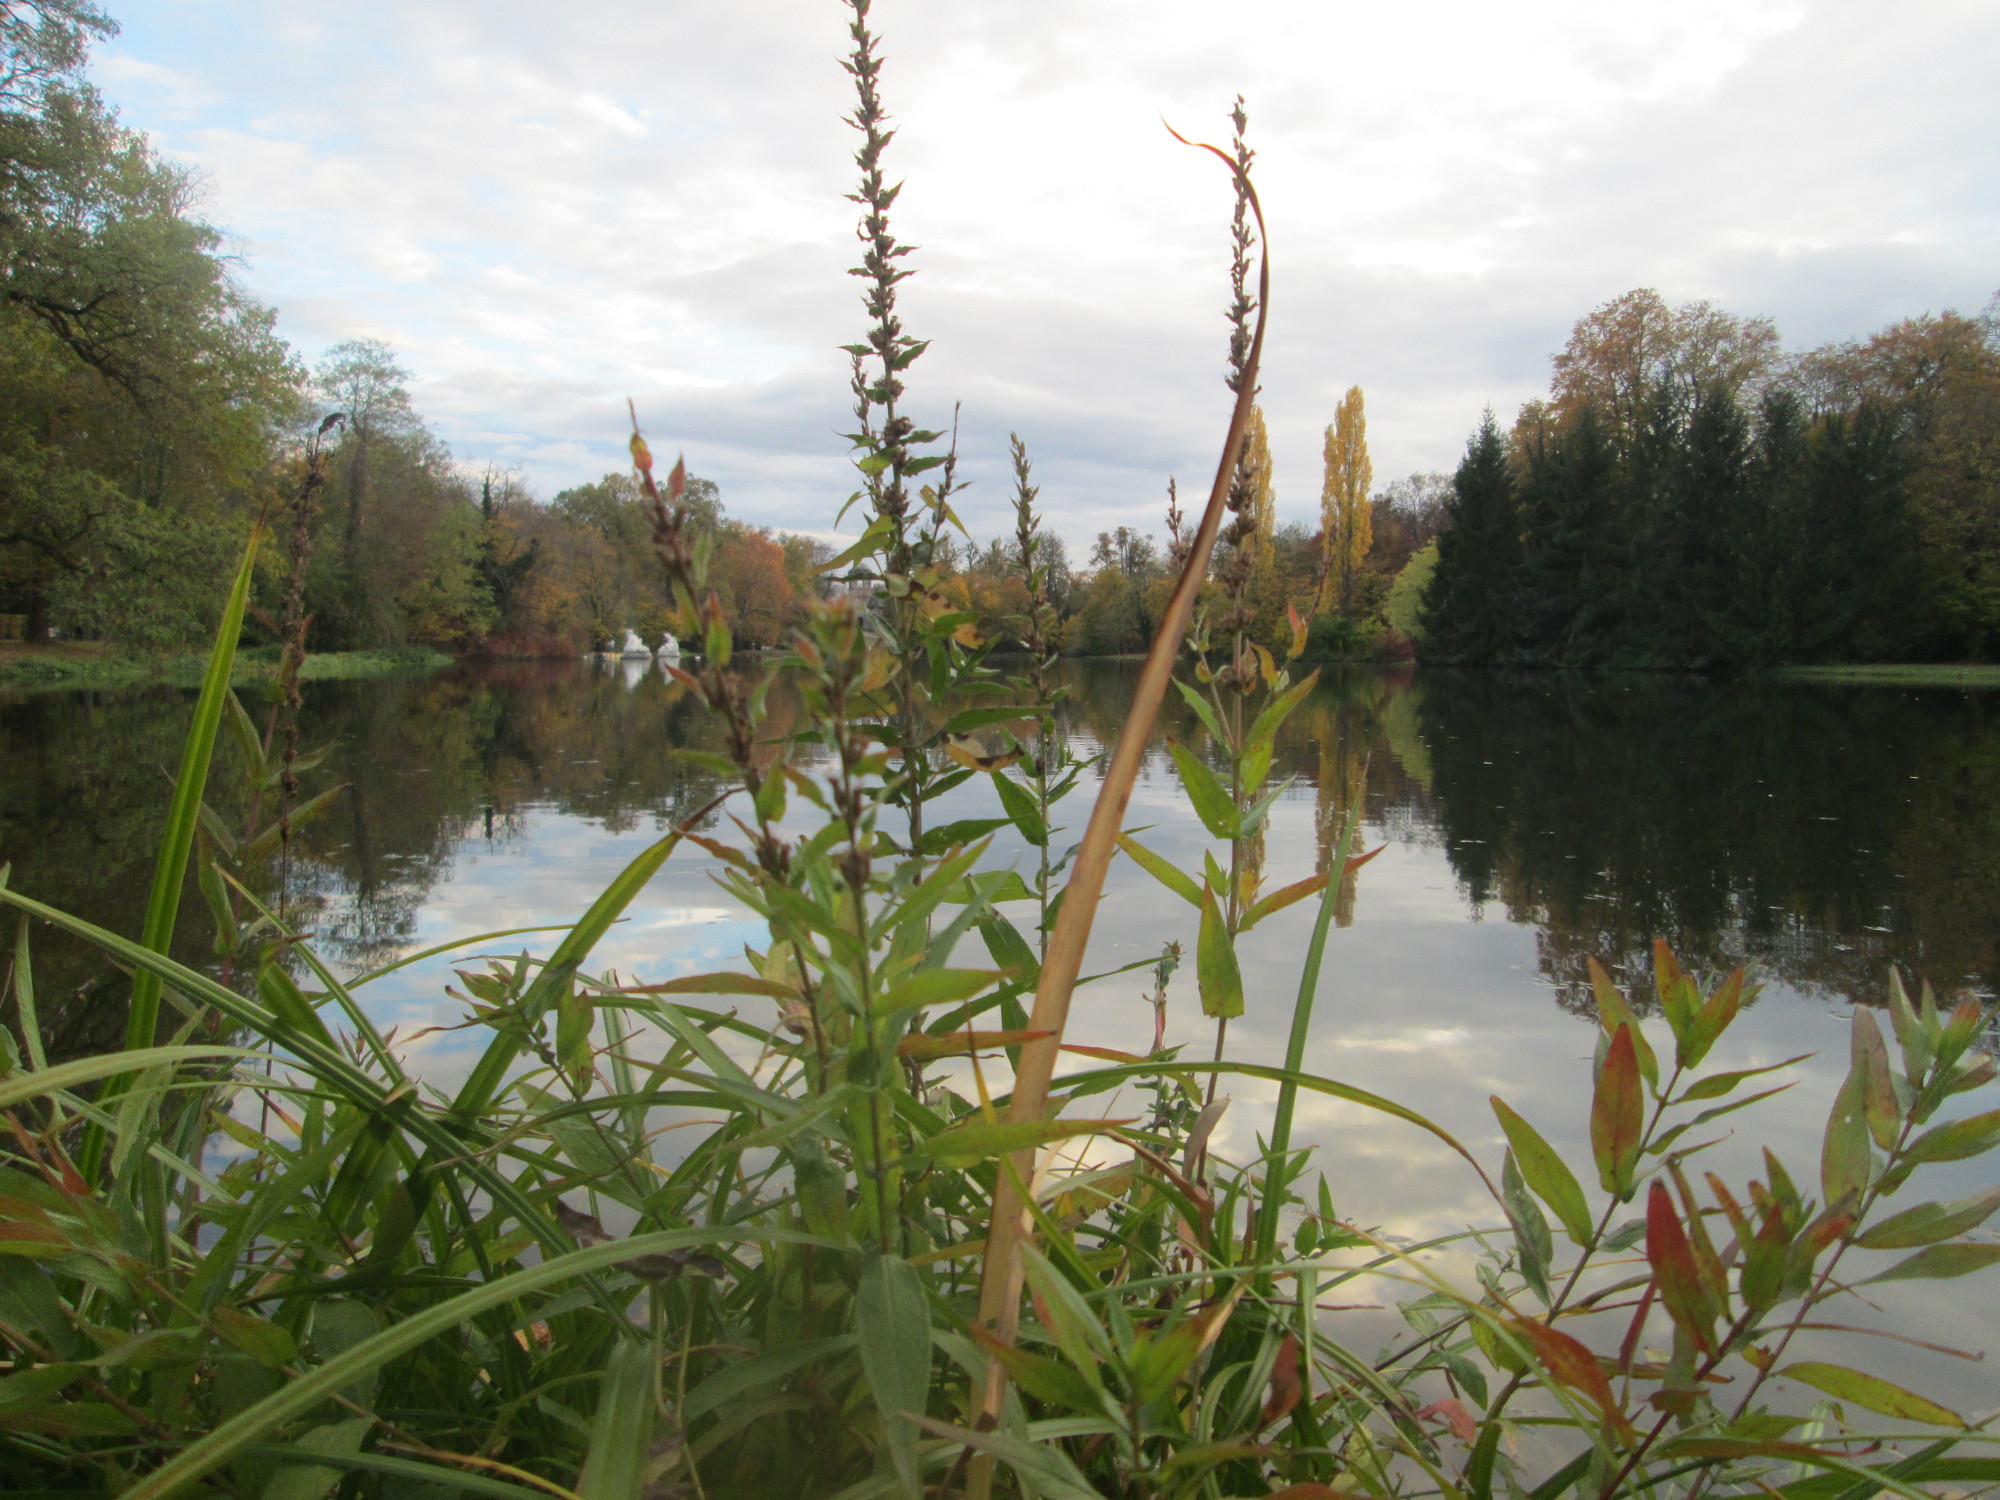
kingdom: Plantae
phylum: Tracheophyta
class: Magnoliopsida
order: Myrtales
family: Lythraceae
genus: Lythrum
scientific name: Lythrum salicaria
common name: Purple loosestrife
